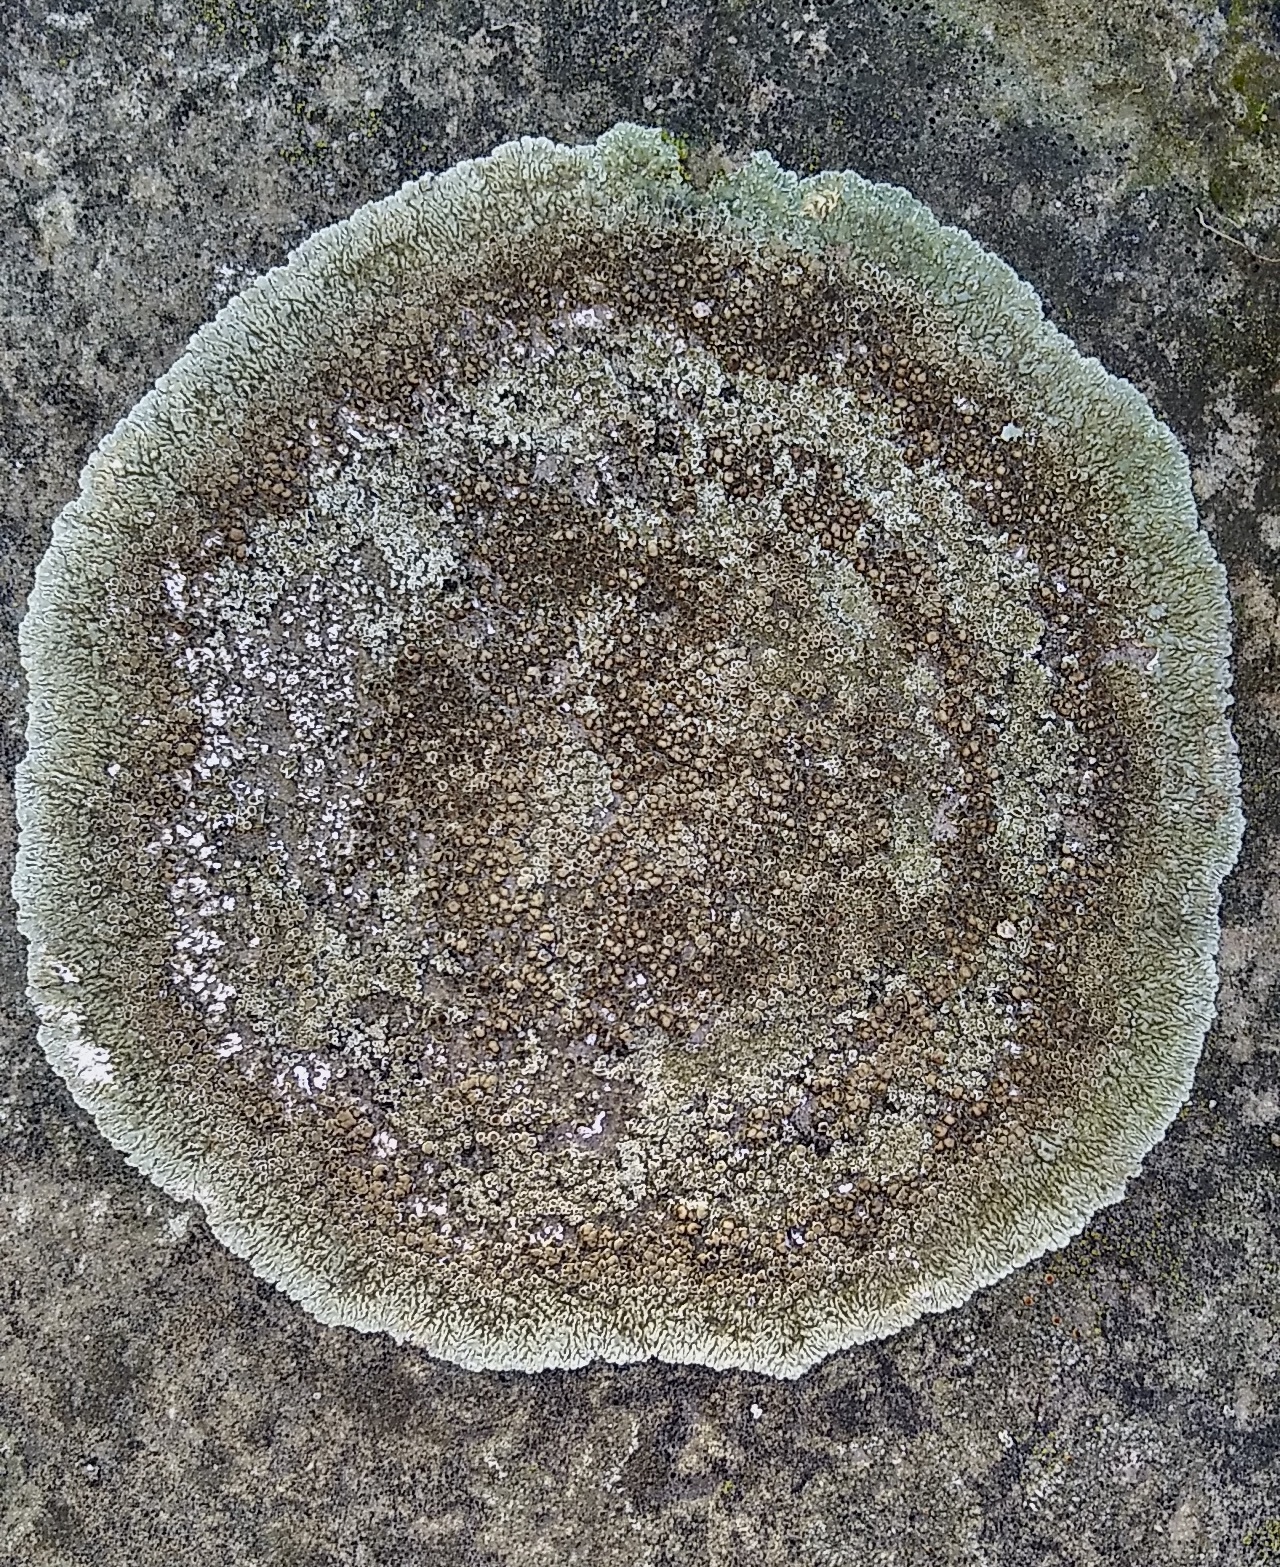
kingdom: Fungi
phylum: Ascomycota
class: Lecanoromycetes
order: Lecanorales
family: Lecanoraceae
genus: Protoparmeliopsis
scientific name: Protoparmeliopsis muralis
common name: Stonewall rim lichen
